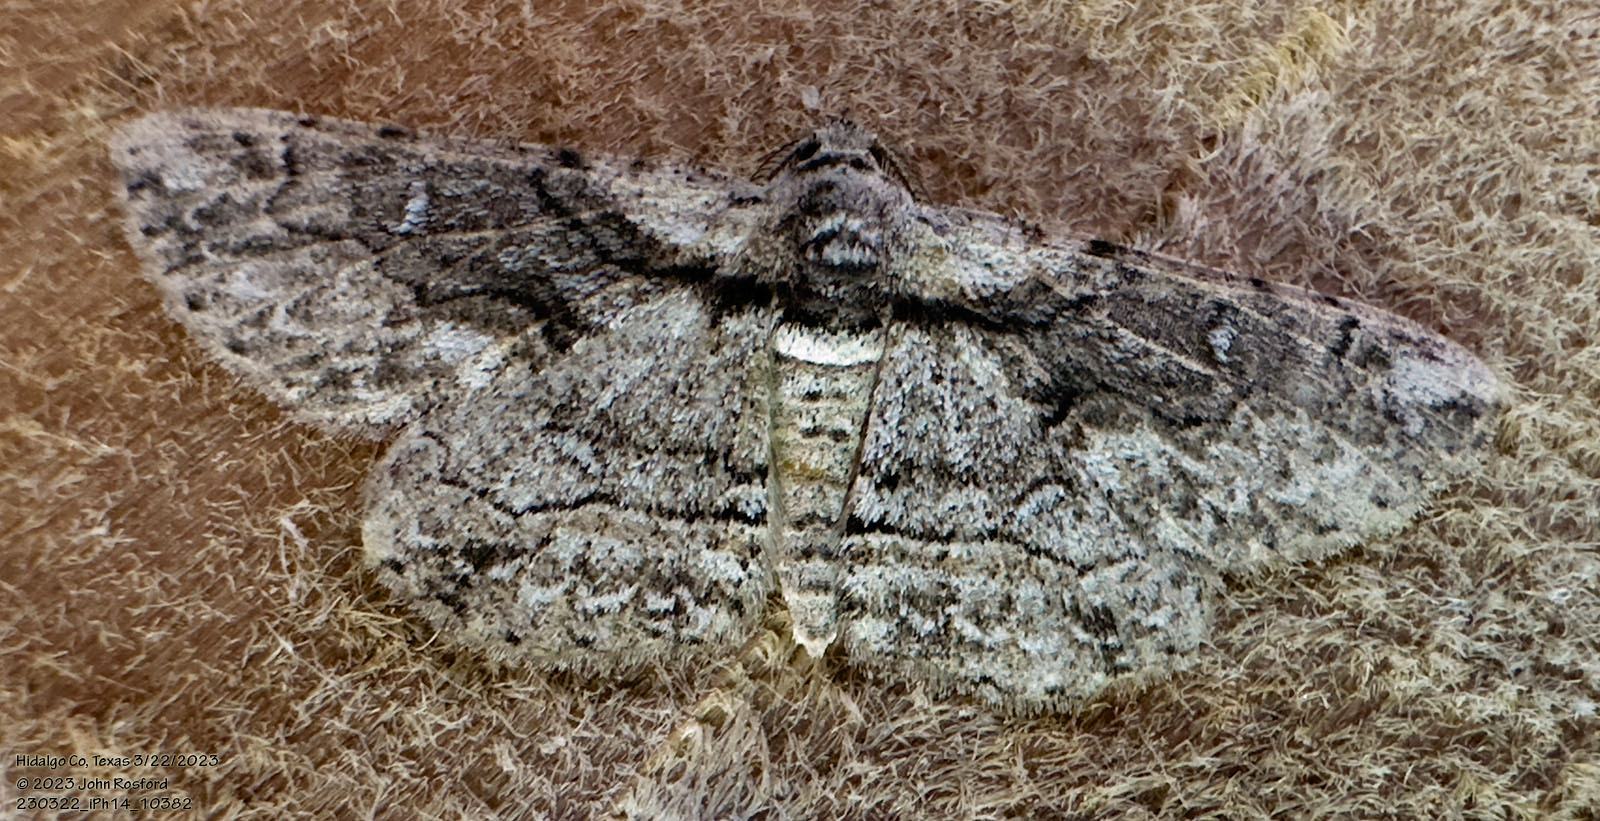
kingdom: Animalia
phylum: Arthropoda
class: Insecta
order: Lepidoptera
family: Geometridae
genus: Iridopsis
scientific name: Iridopsis dataria
